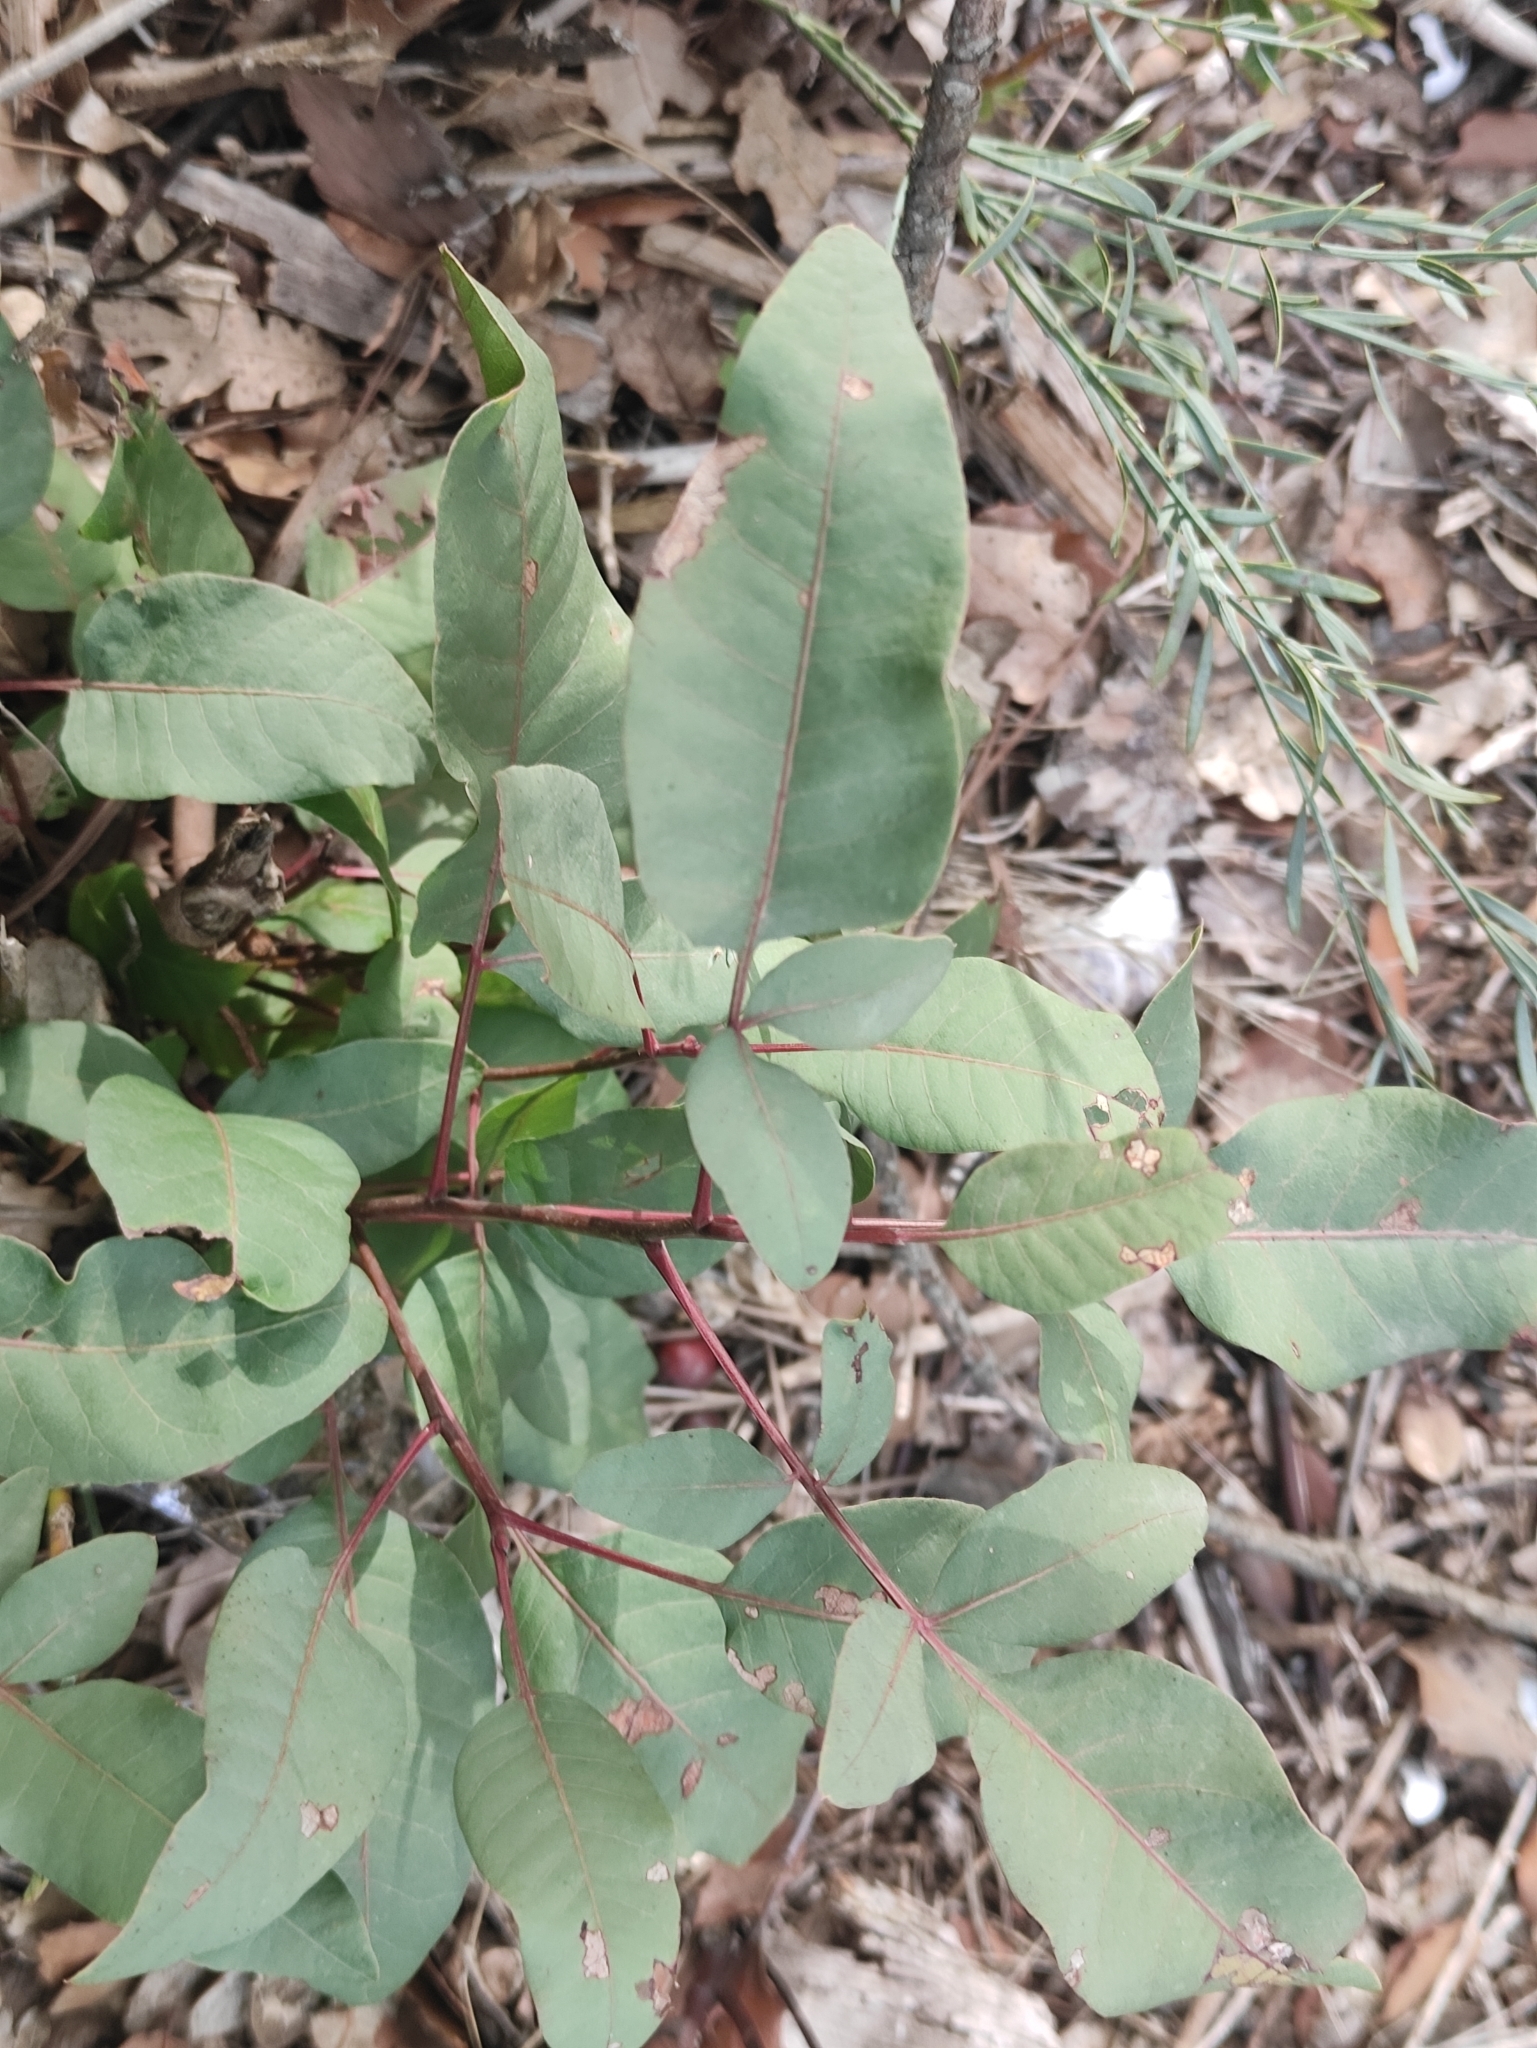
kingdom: Plantae
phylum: Tracheophyta
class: Magnoliopsida
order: Sapindales
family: Anacardiaceae
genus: Pistacia
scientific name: Pistacia terebinthus
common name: Terebinth
